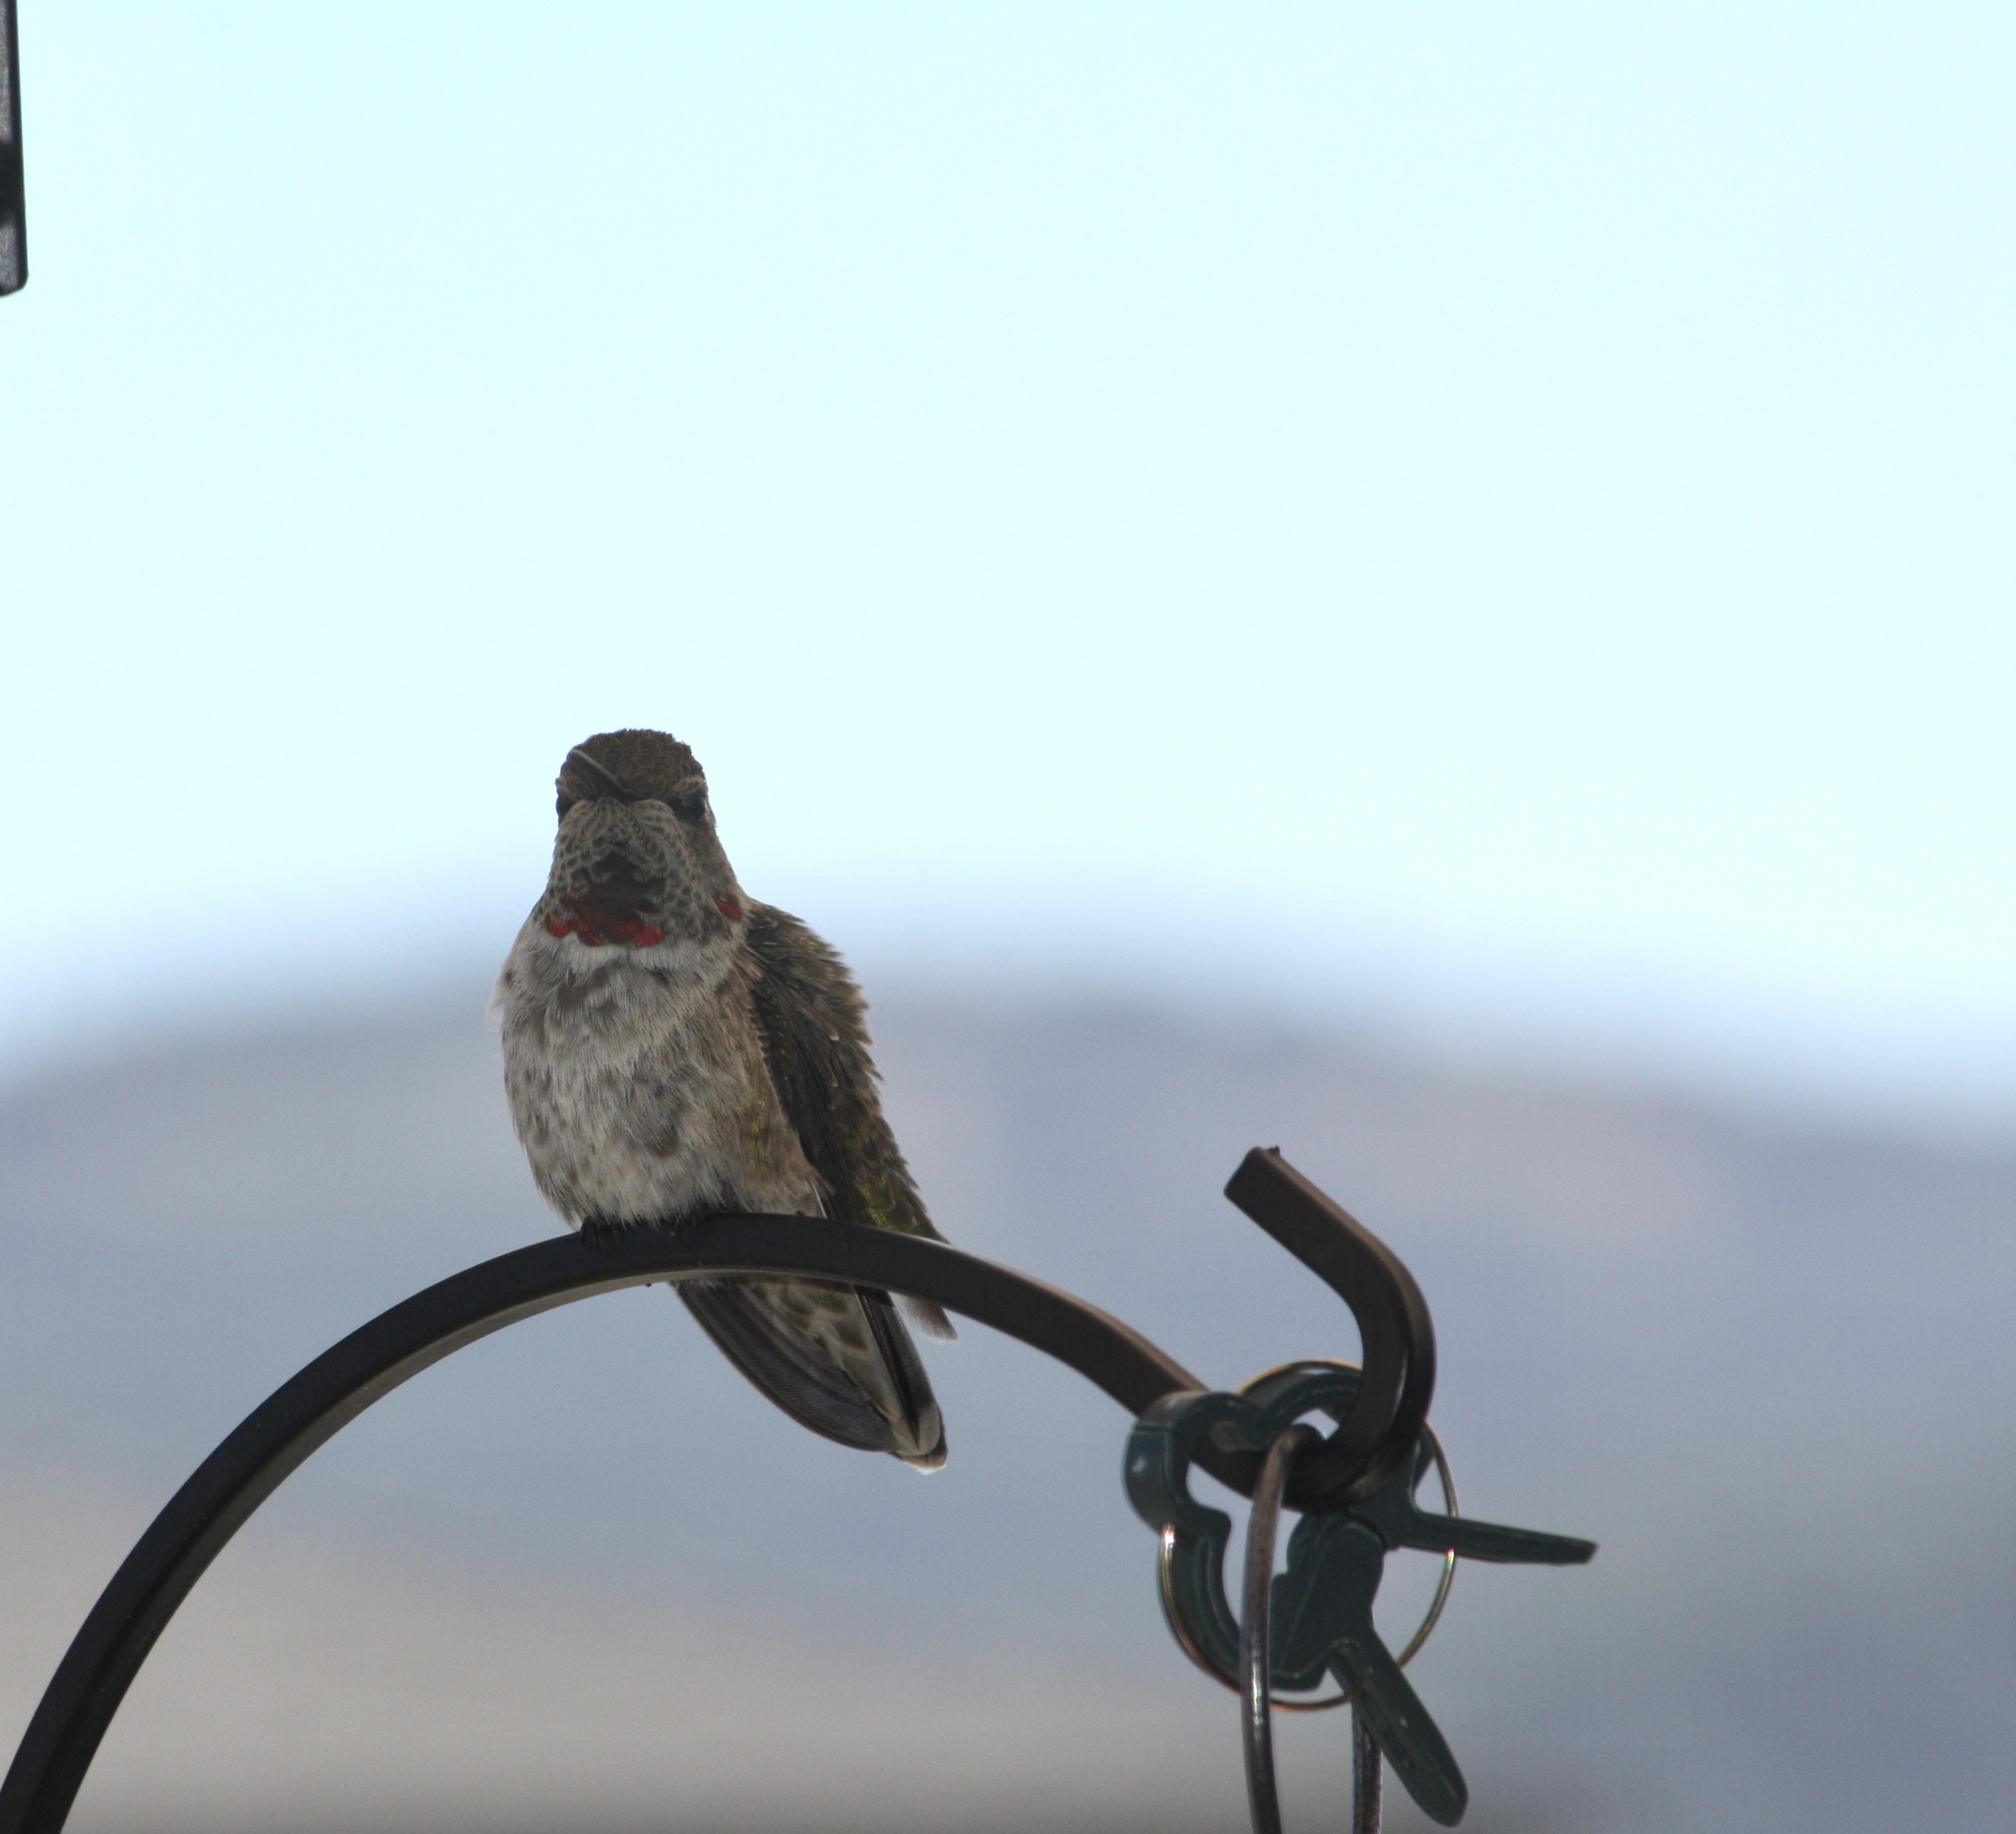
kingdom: Animalia
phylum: Chordata
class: Aves
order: Apodiformes
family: Trochilidae
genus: Calypte
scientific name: Calypte anna
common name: Anna's hummingbird
